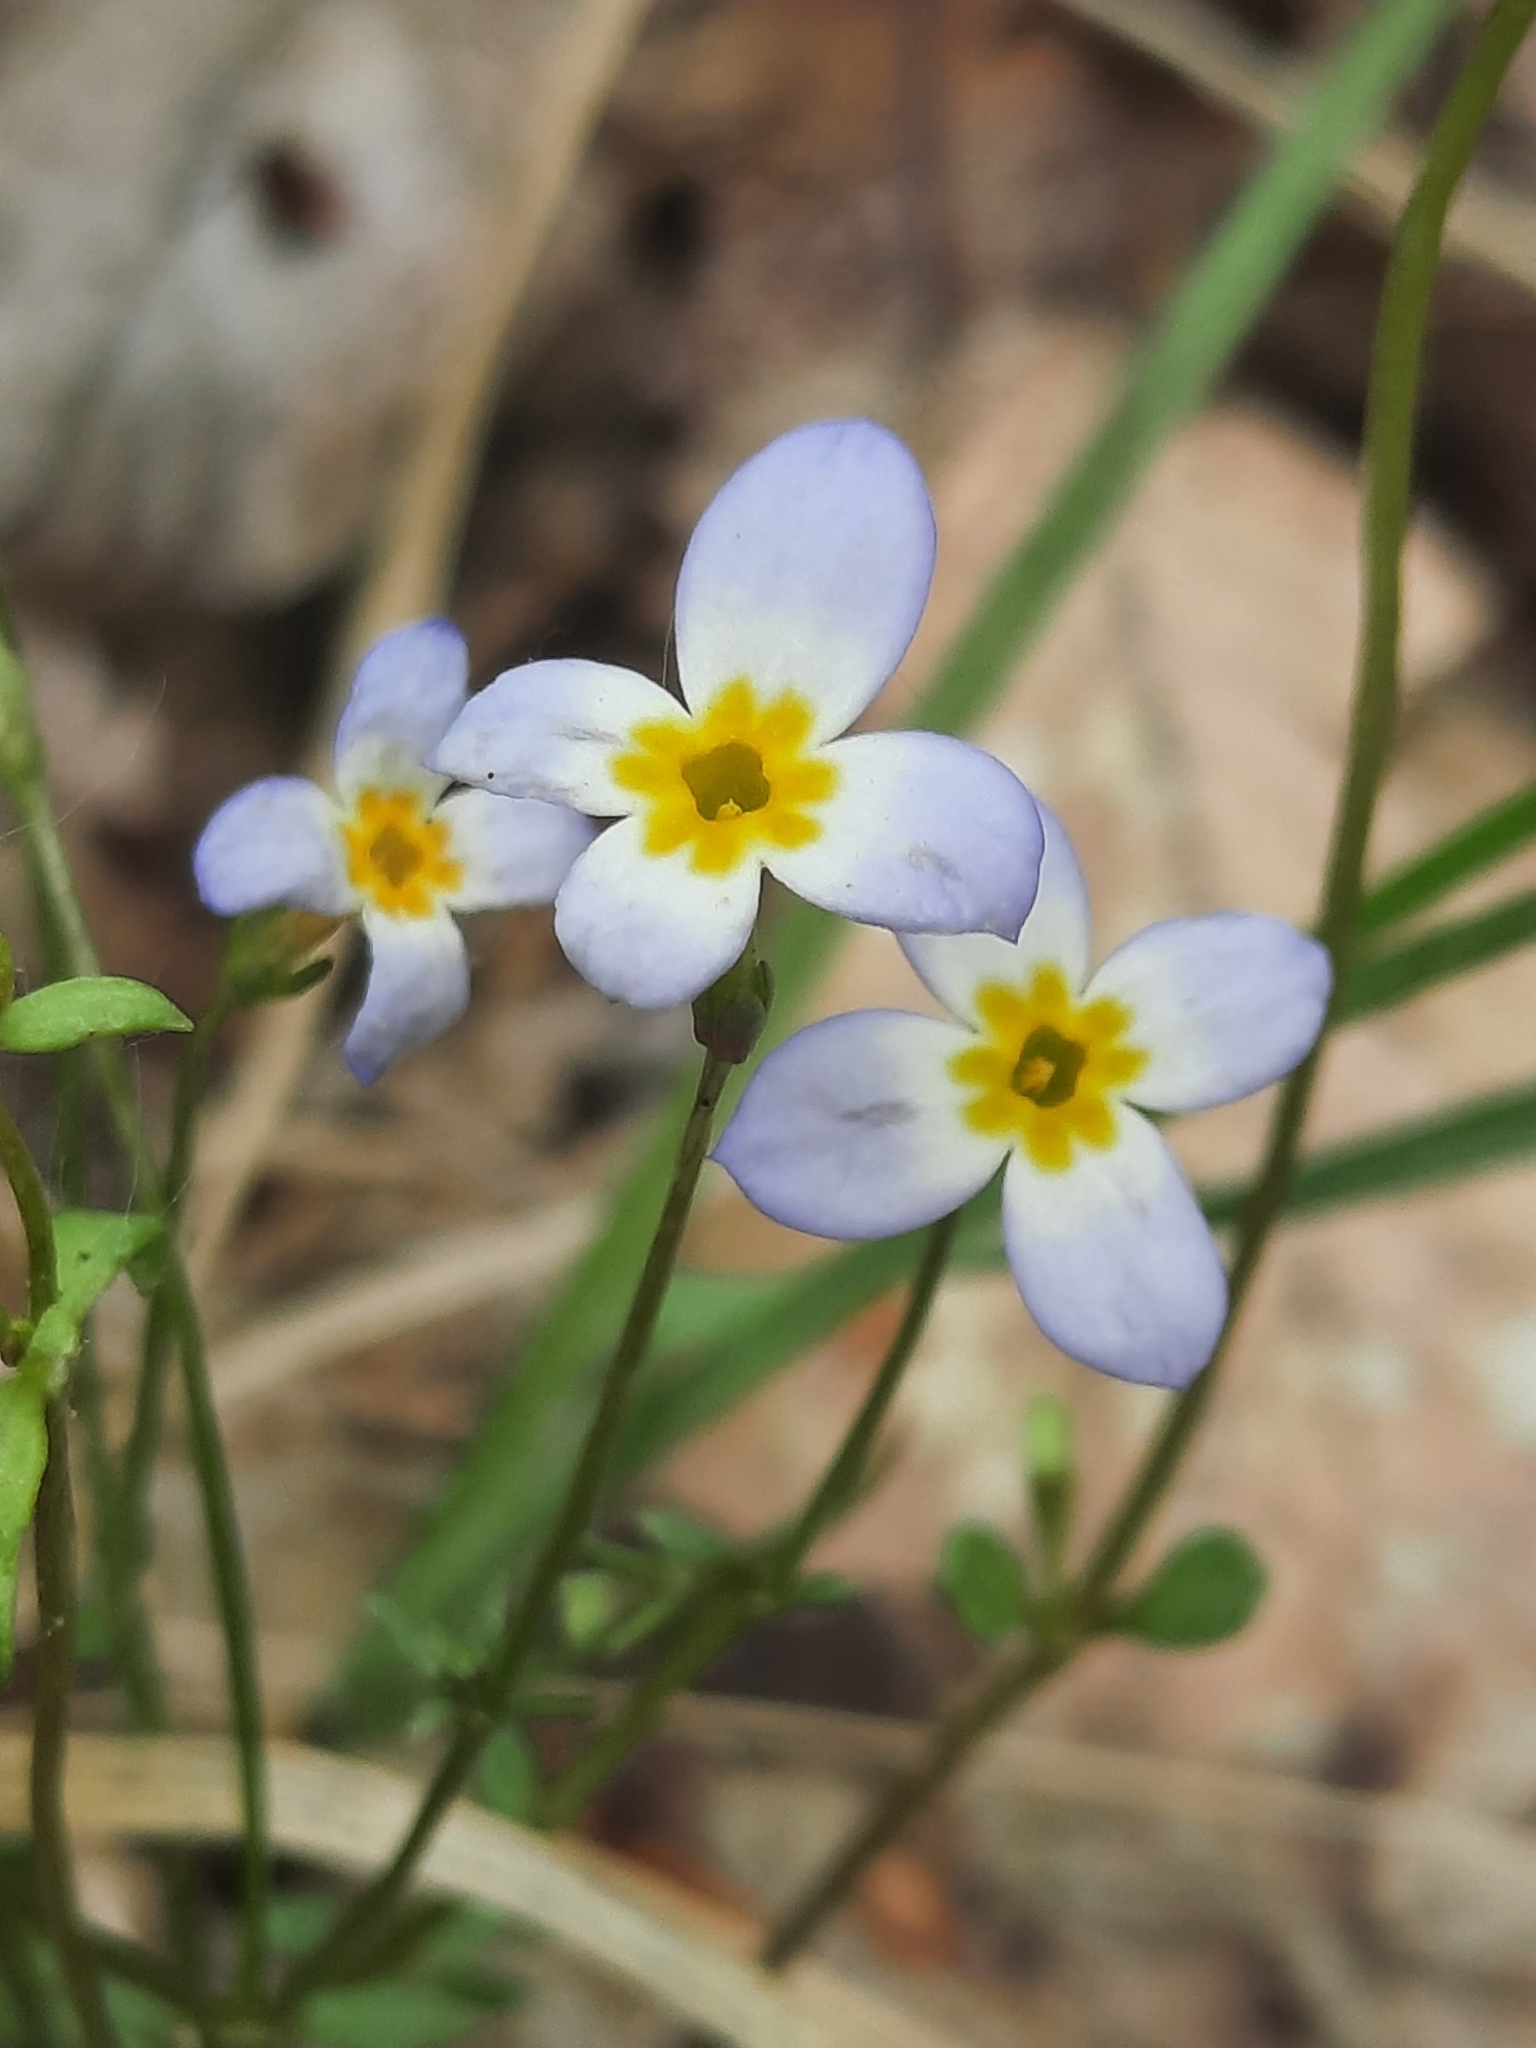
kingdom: Plantae
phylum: Tracheophyta
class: Magnoliopsida
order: Gentianales
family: Rubiaceae
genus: Houstonia
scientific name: Houstonia caerulea
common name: Bluets
